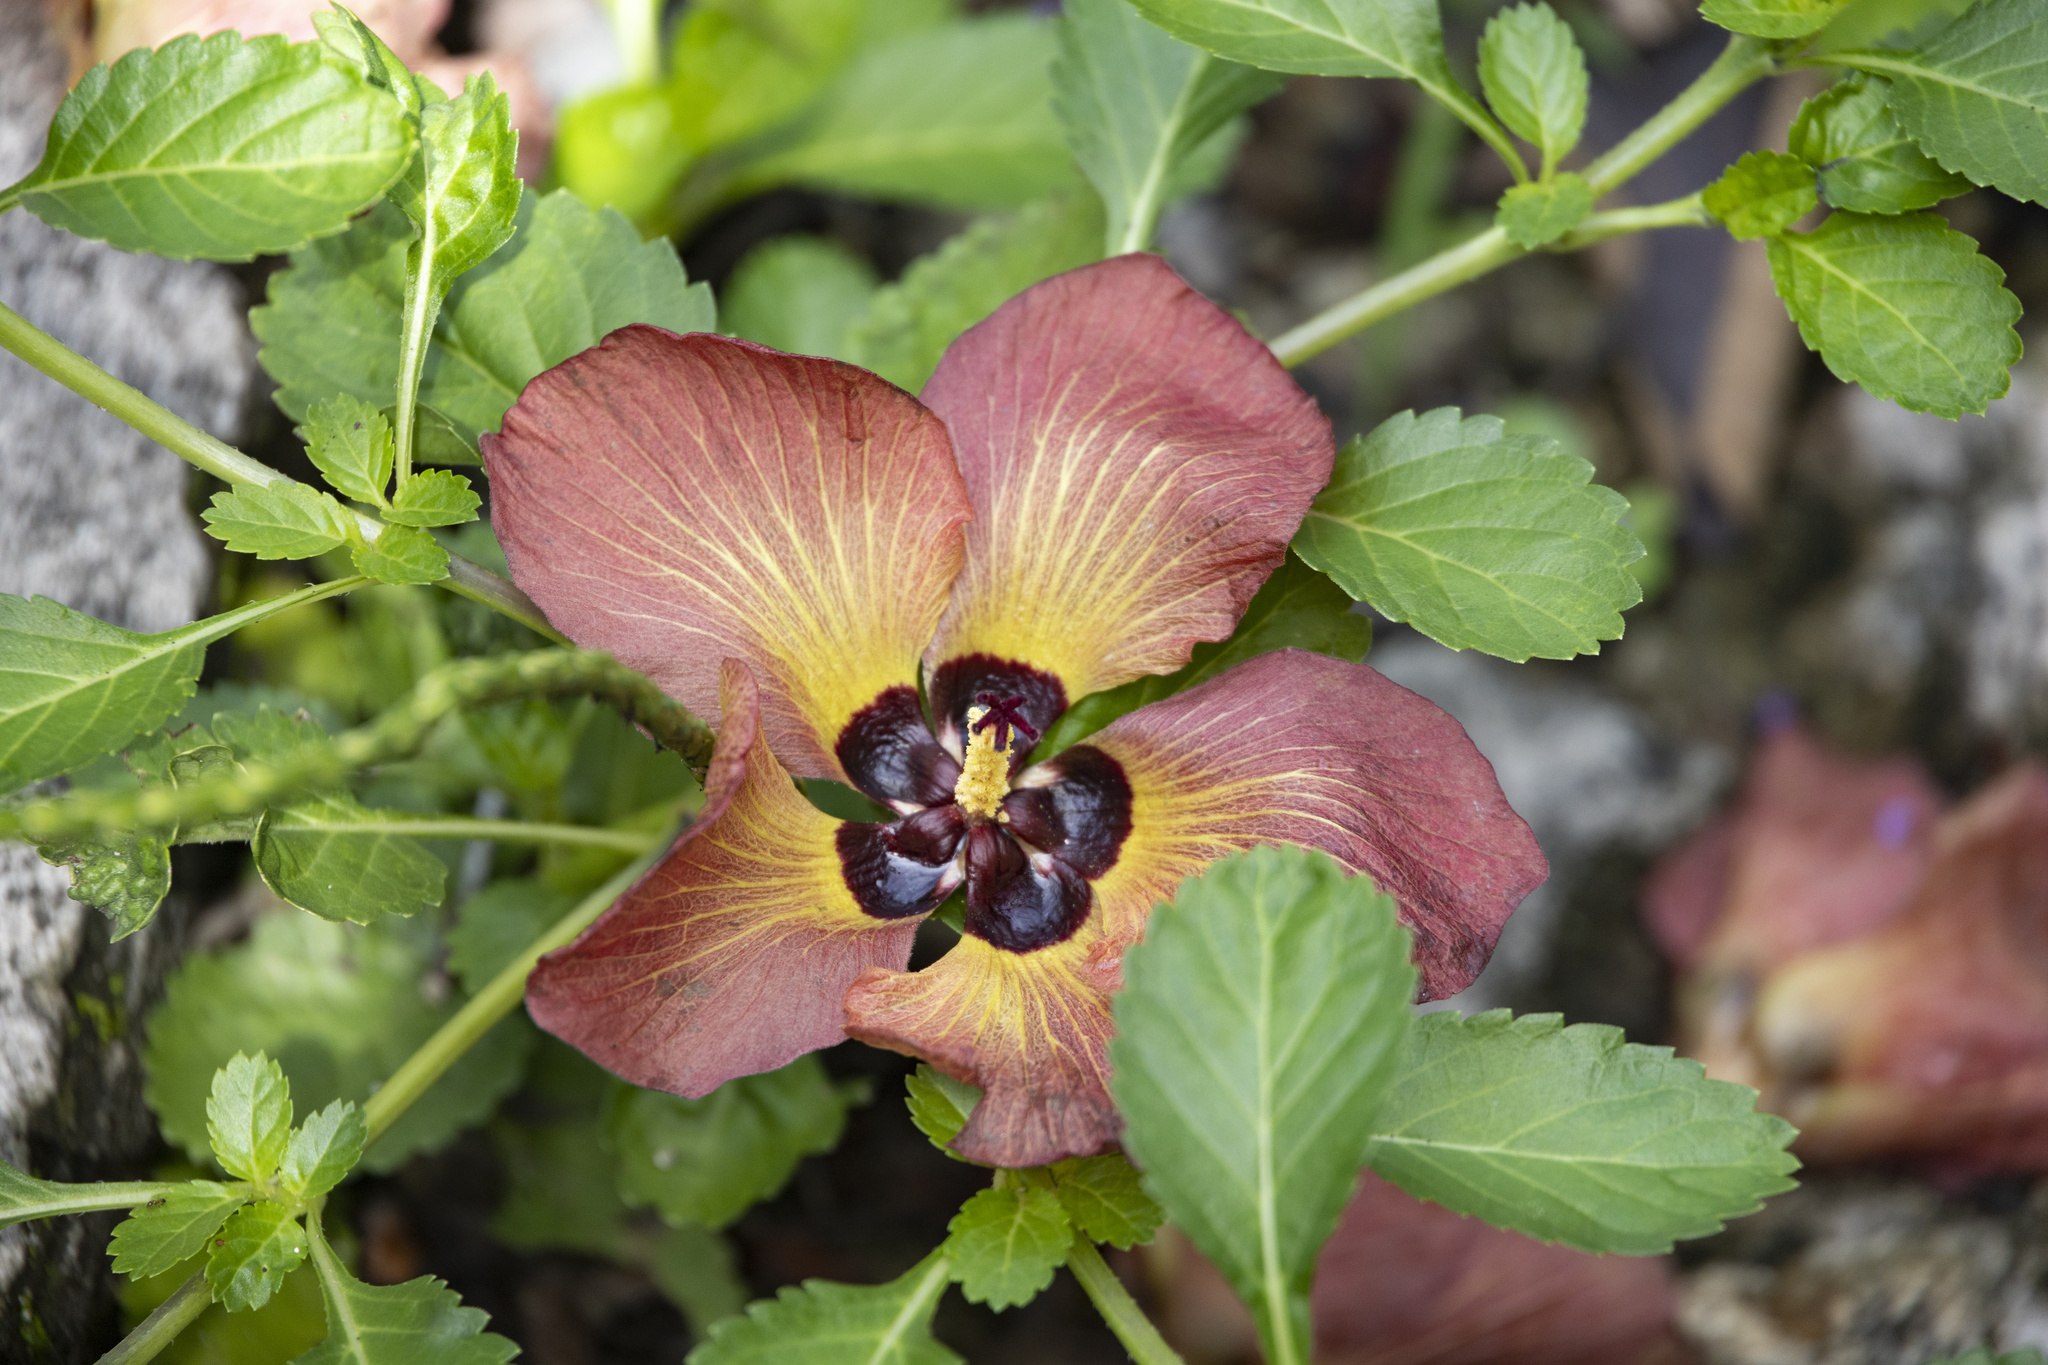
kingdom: Plantae
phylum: Tracheophyta
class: Magnoliopsida
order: Malvales
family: Malvaceae
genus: Talipariti
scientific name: Talipariti tiliaceum
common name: Sea hibiscus
